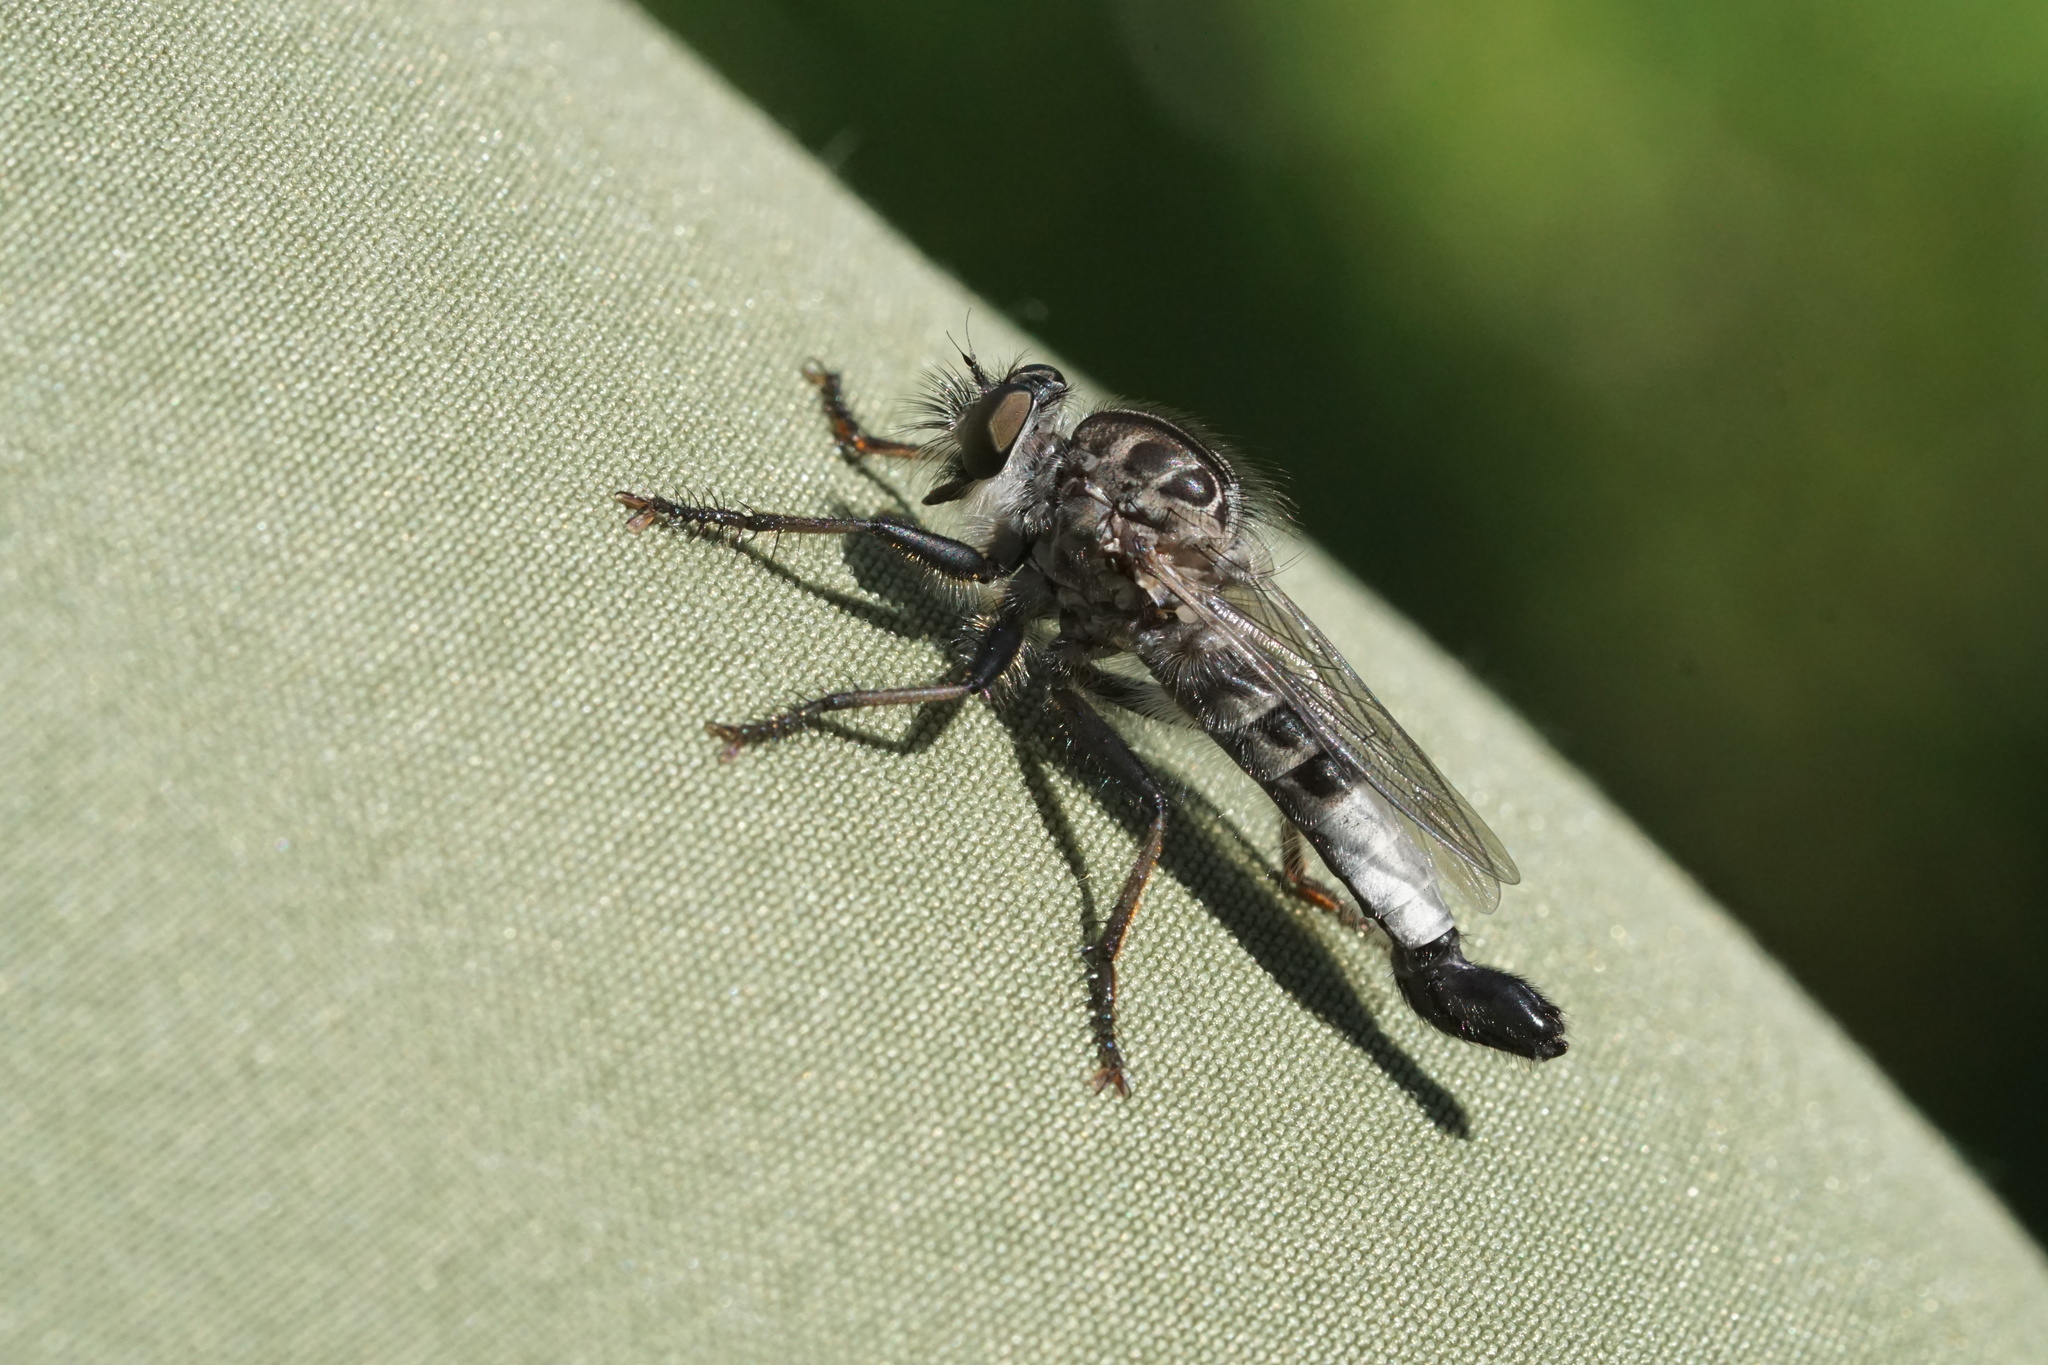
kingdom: Animalia
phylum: Arthropoda
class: Insecta
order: Diptera
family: Asilidae
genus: Efferia
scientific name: Efferia aestuans
